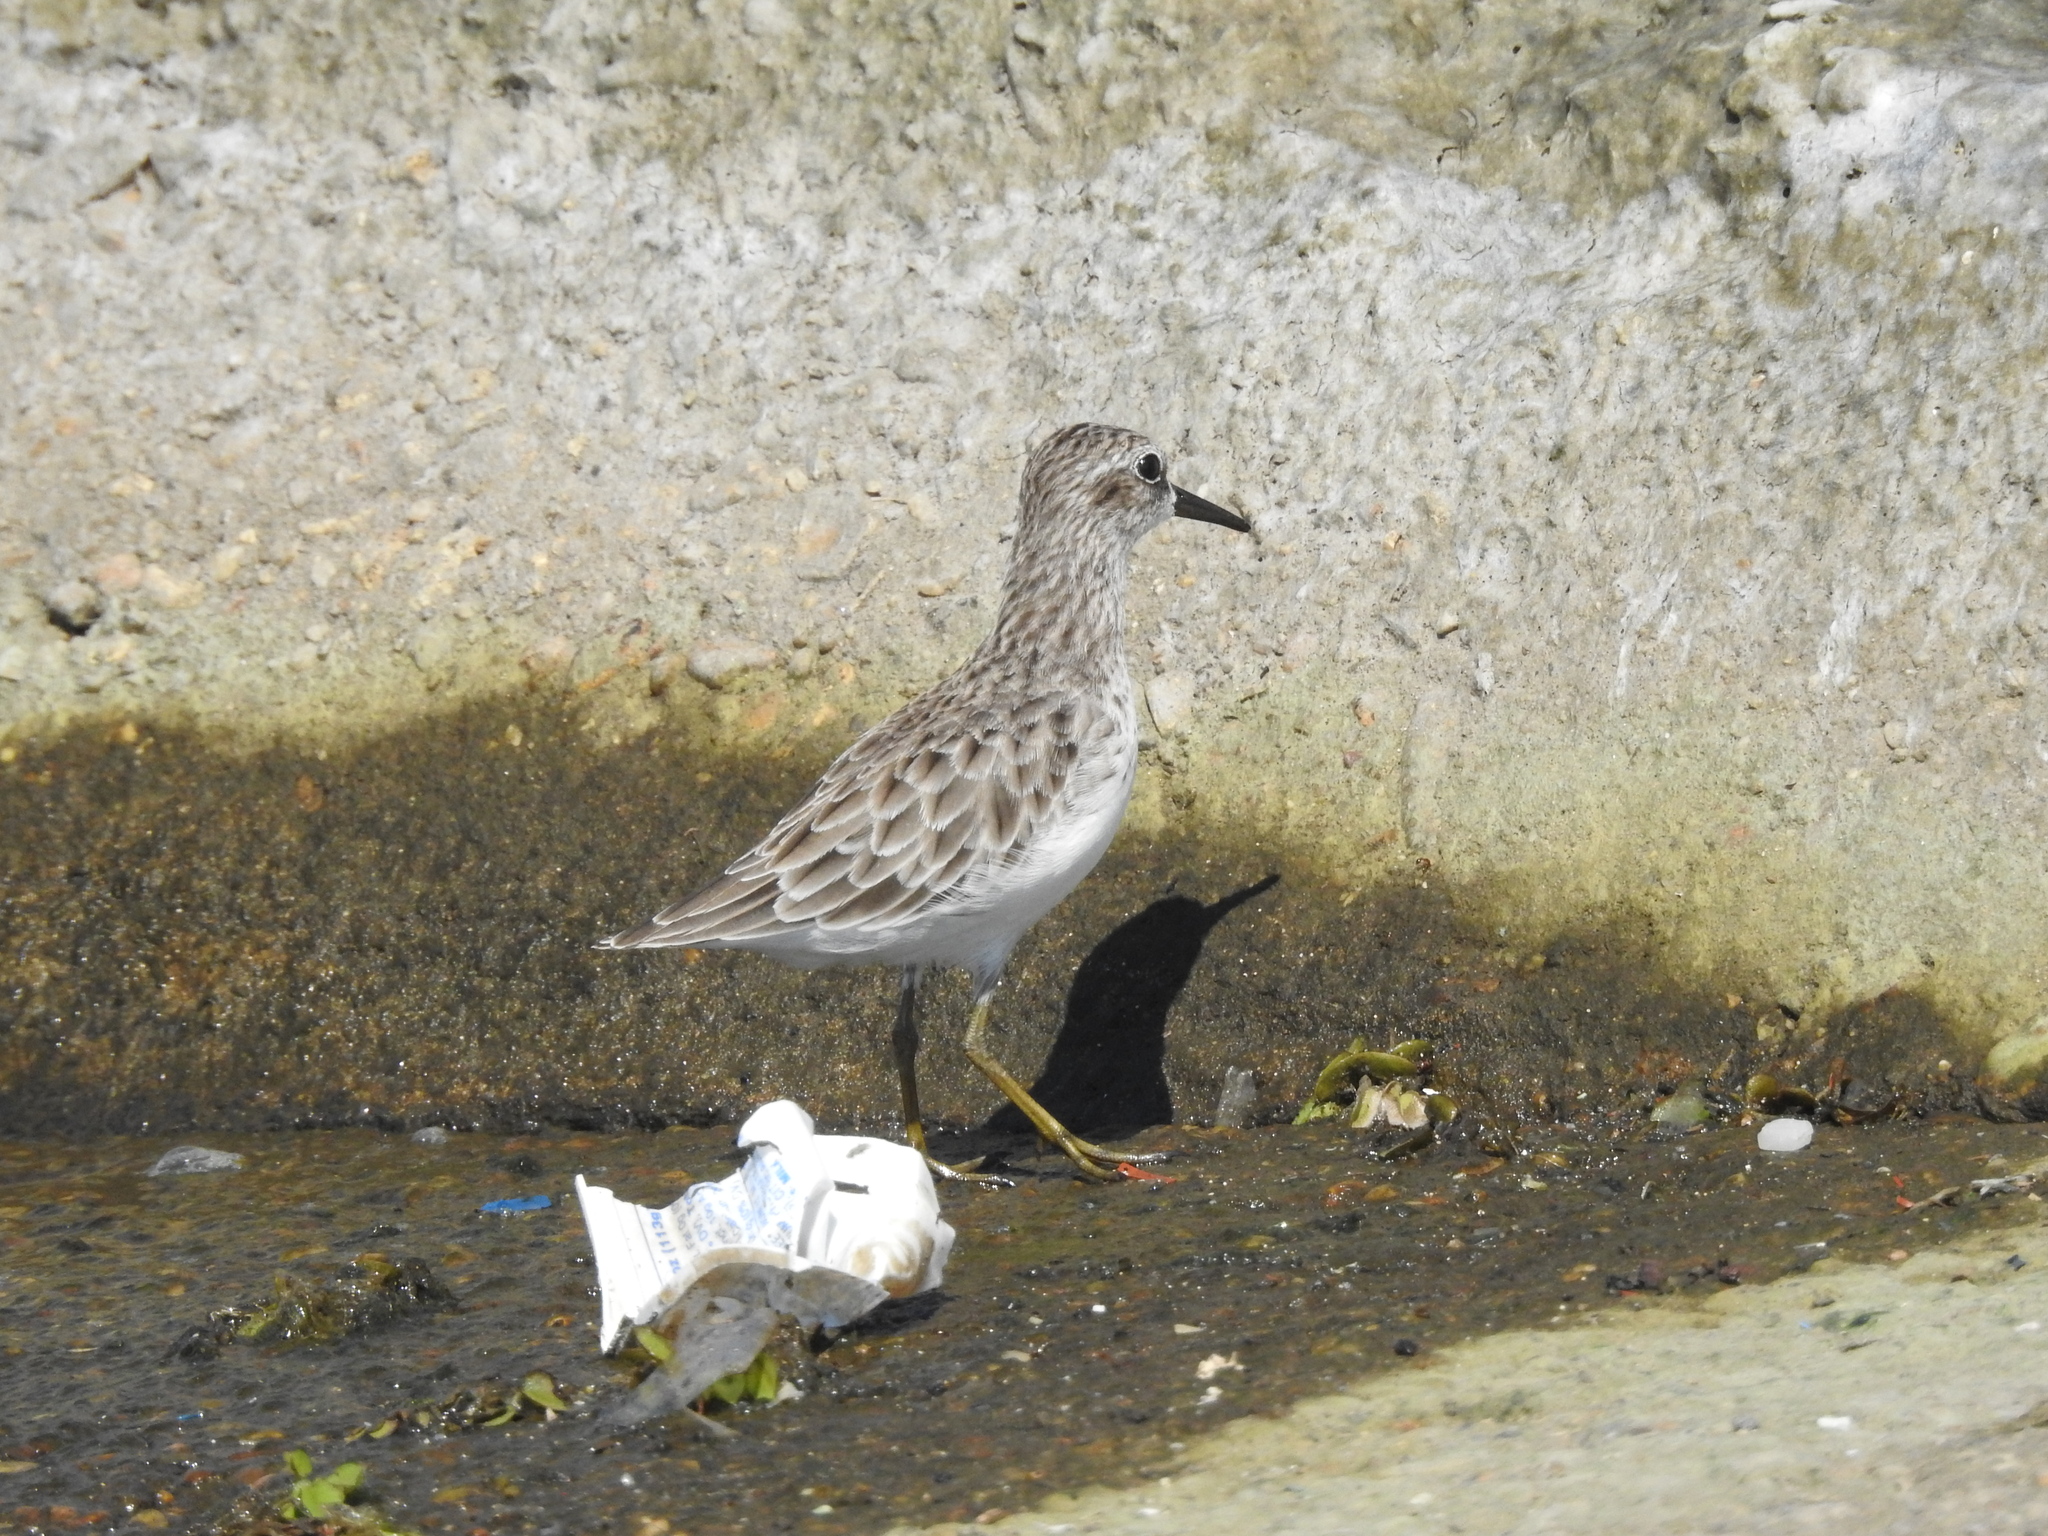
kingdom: Animalia
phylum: Chordata
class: Aves
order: Charadriiformes
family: Scolopacidae
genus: Calidris
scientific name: Calidris minutilla
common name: Least sandpiper
